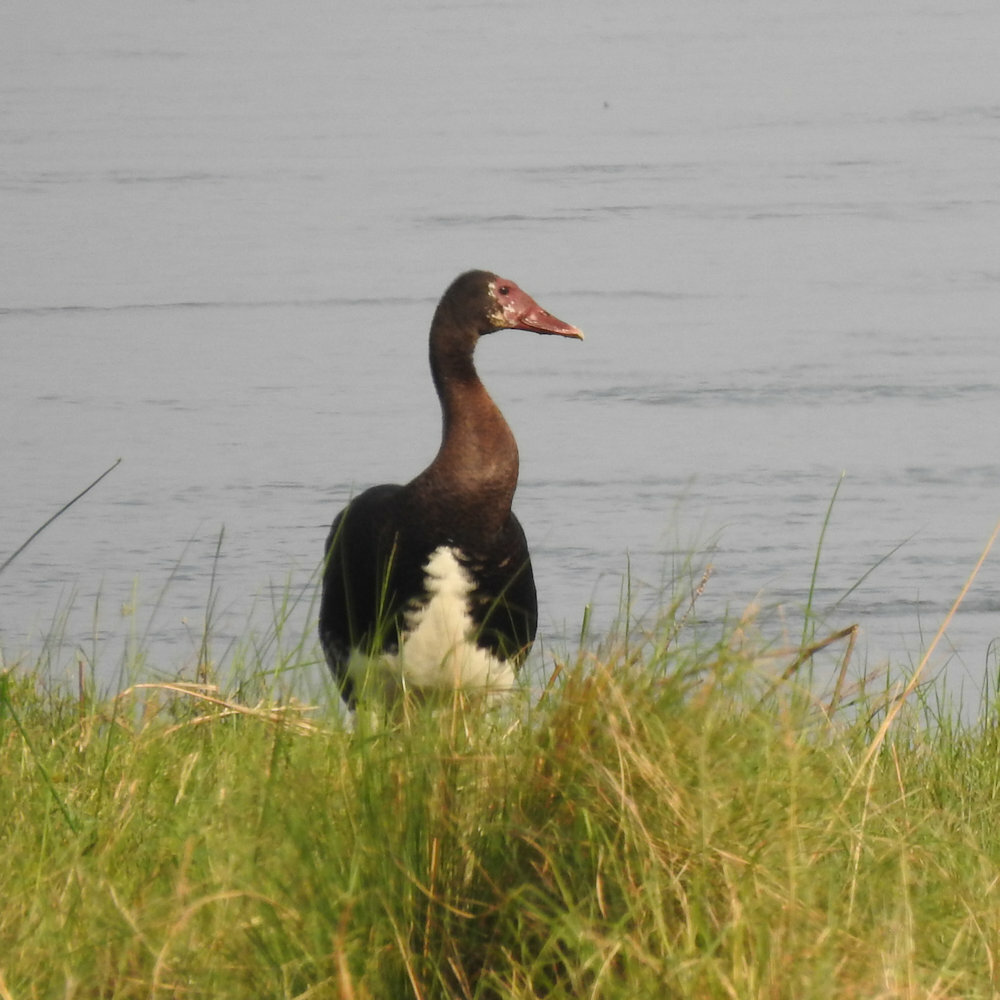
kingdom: Animalia
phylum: Chordata
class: Aves
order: Anseriformes
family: Anatidae
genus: Plectropterus
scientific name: Plectropterus gambensis
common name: Spur-winged goose
